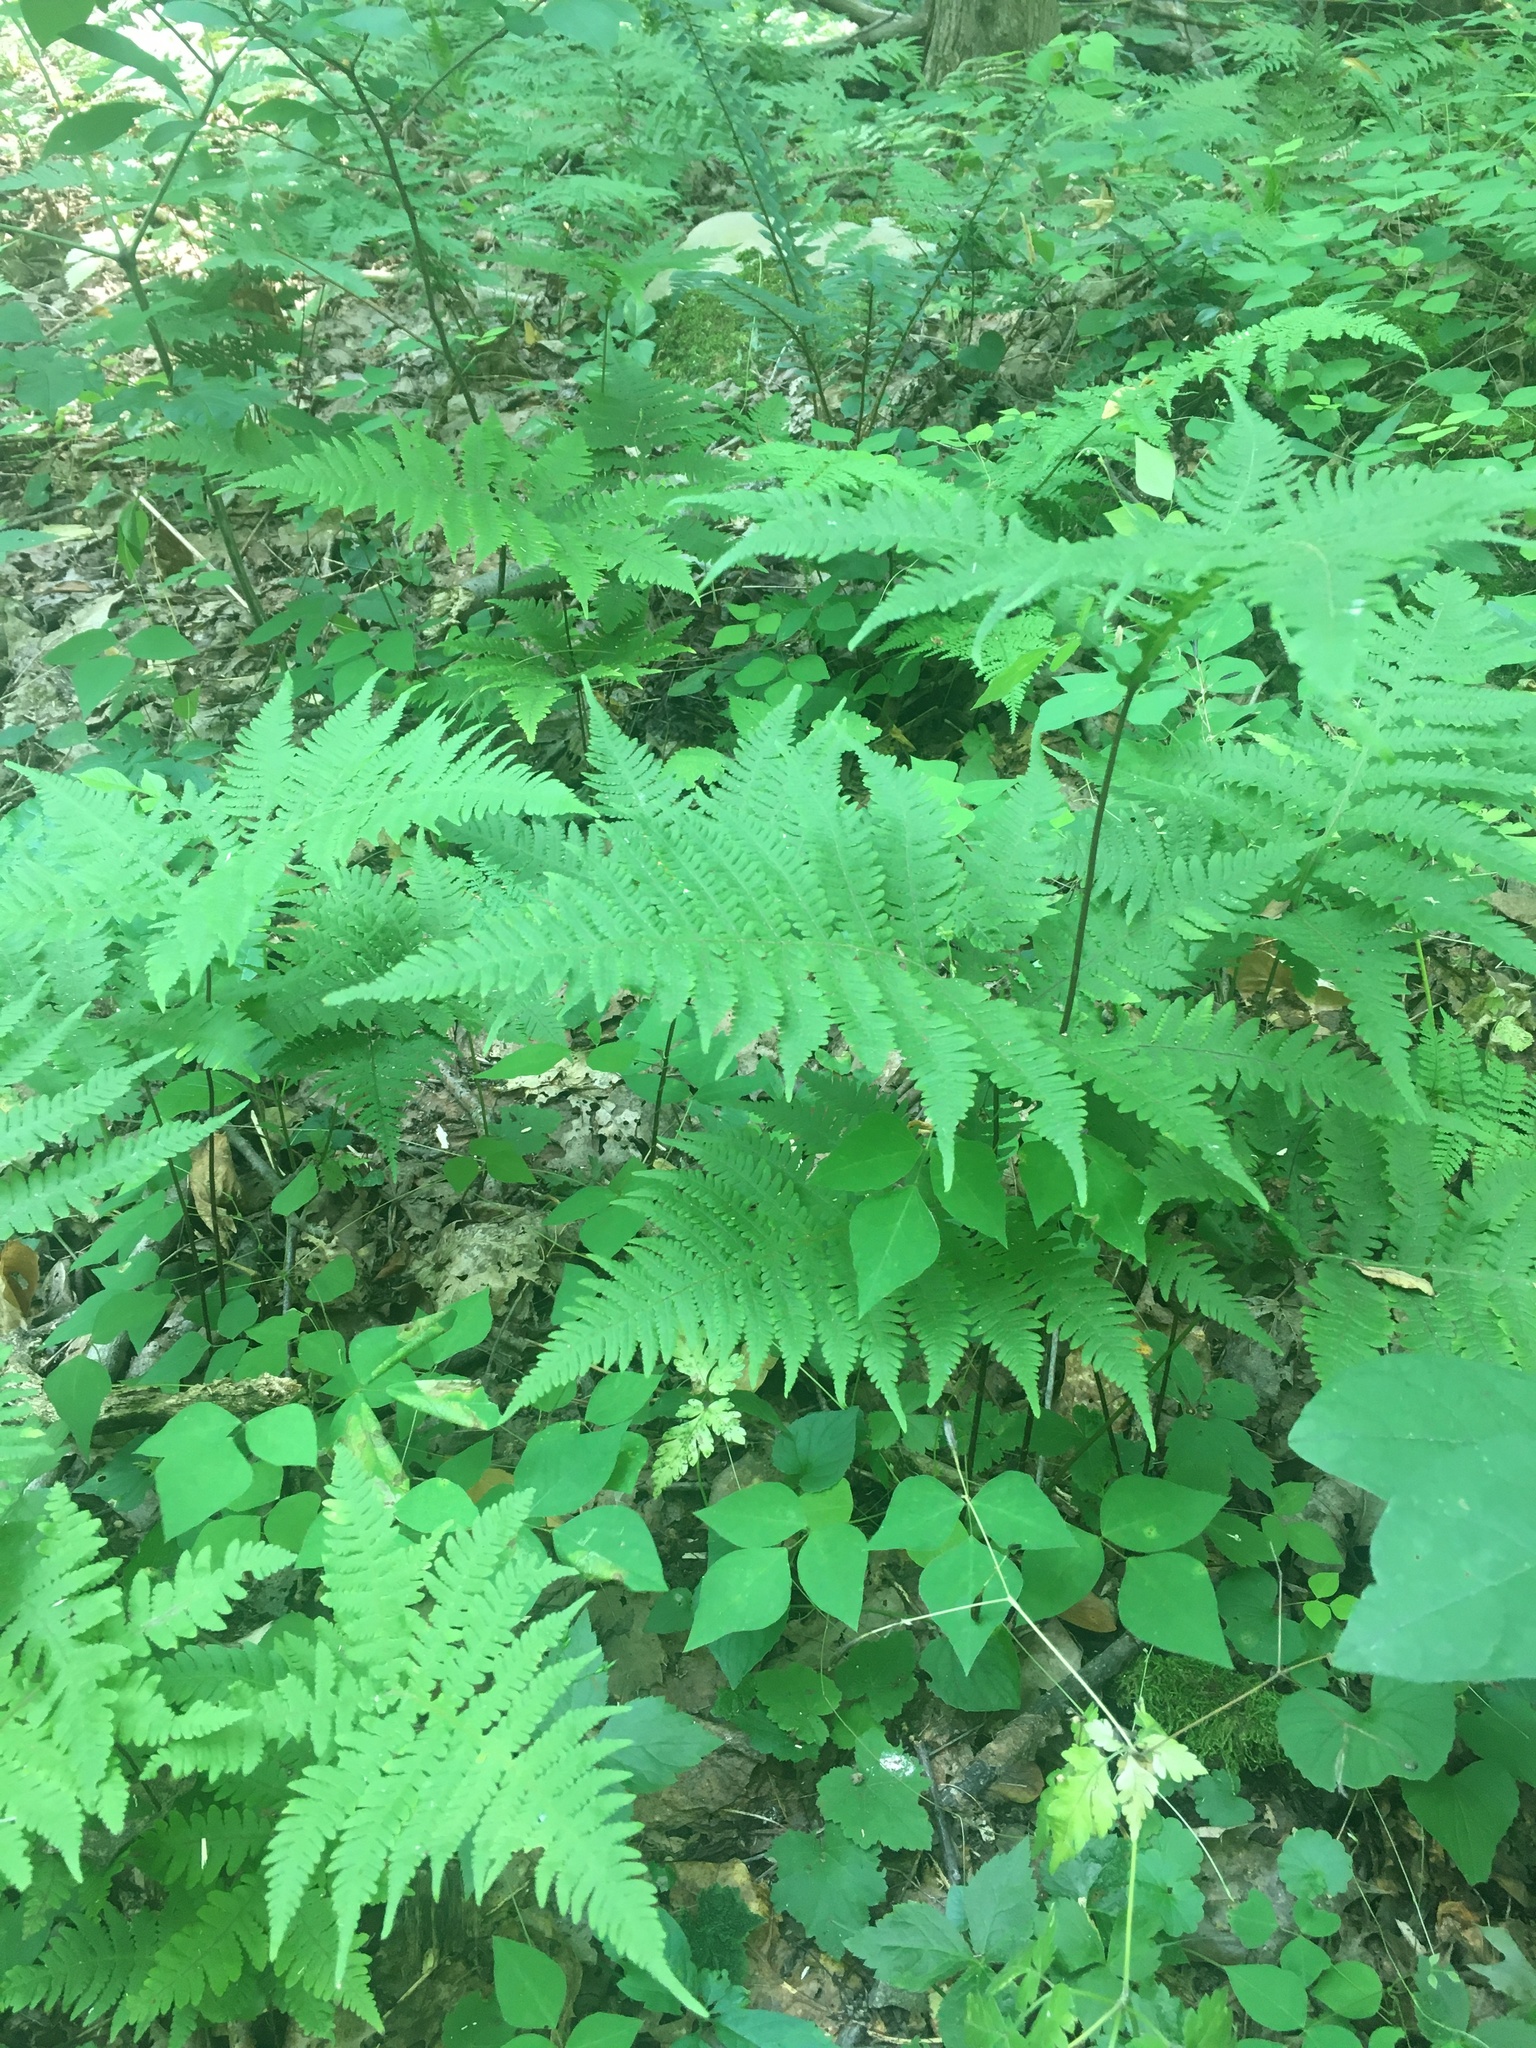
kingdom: Plantae
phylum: Tracheophyta
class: Polypodiopsida
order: Polypodiales
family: Thelypteridaceae
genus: Phegopteris
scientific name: Phegopteris hexagonoptera
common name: Broad beech fern
